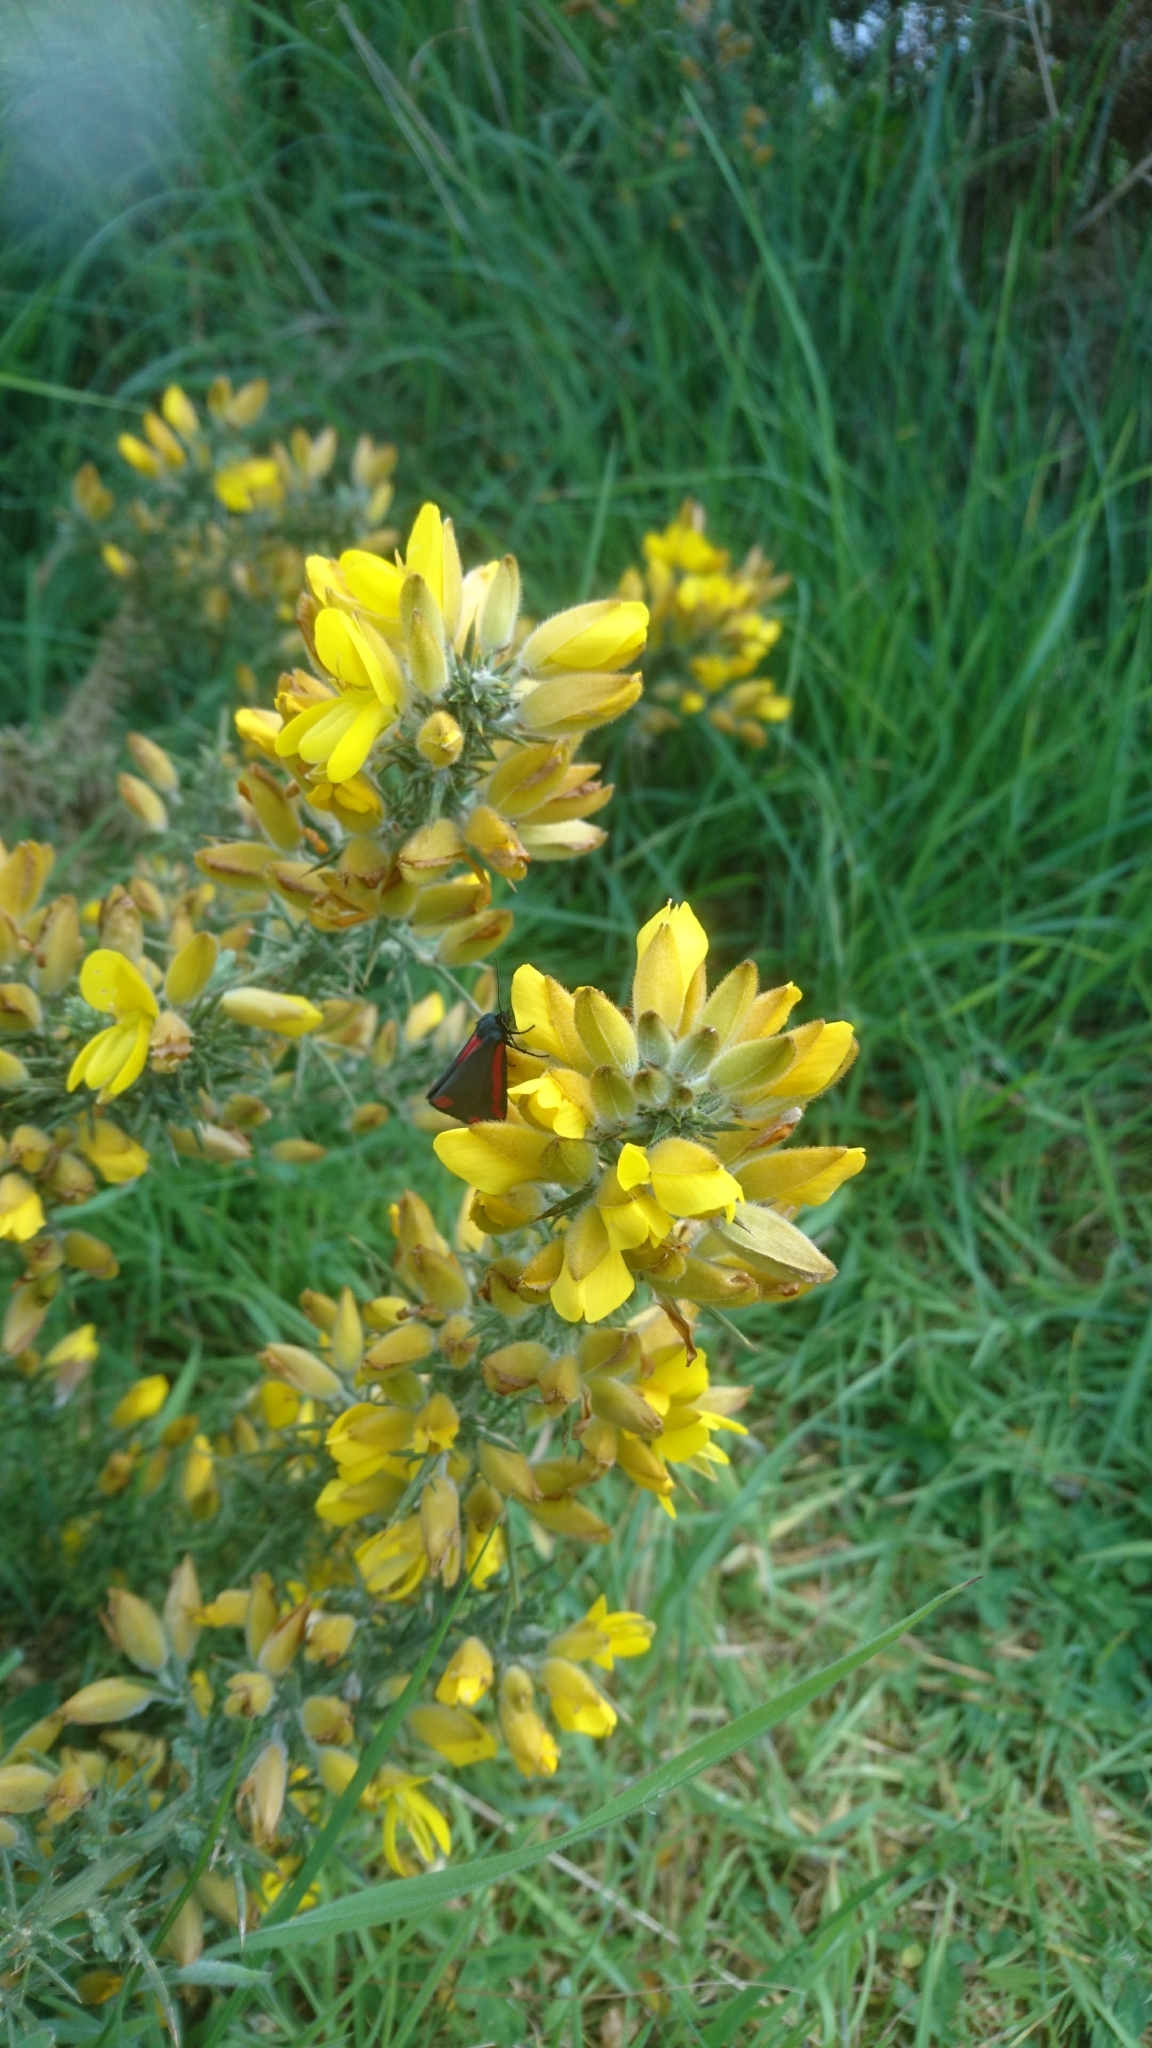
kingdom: Plantae
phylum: Tracheophyta
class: Magnoliopsida
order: Fabales
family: Fabaceae
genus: Ulex
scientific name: Ulex europaeus
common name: Common gorse
